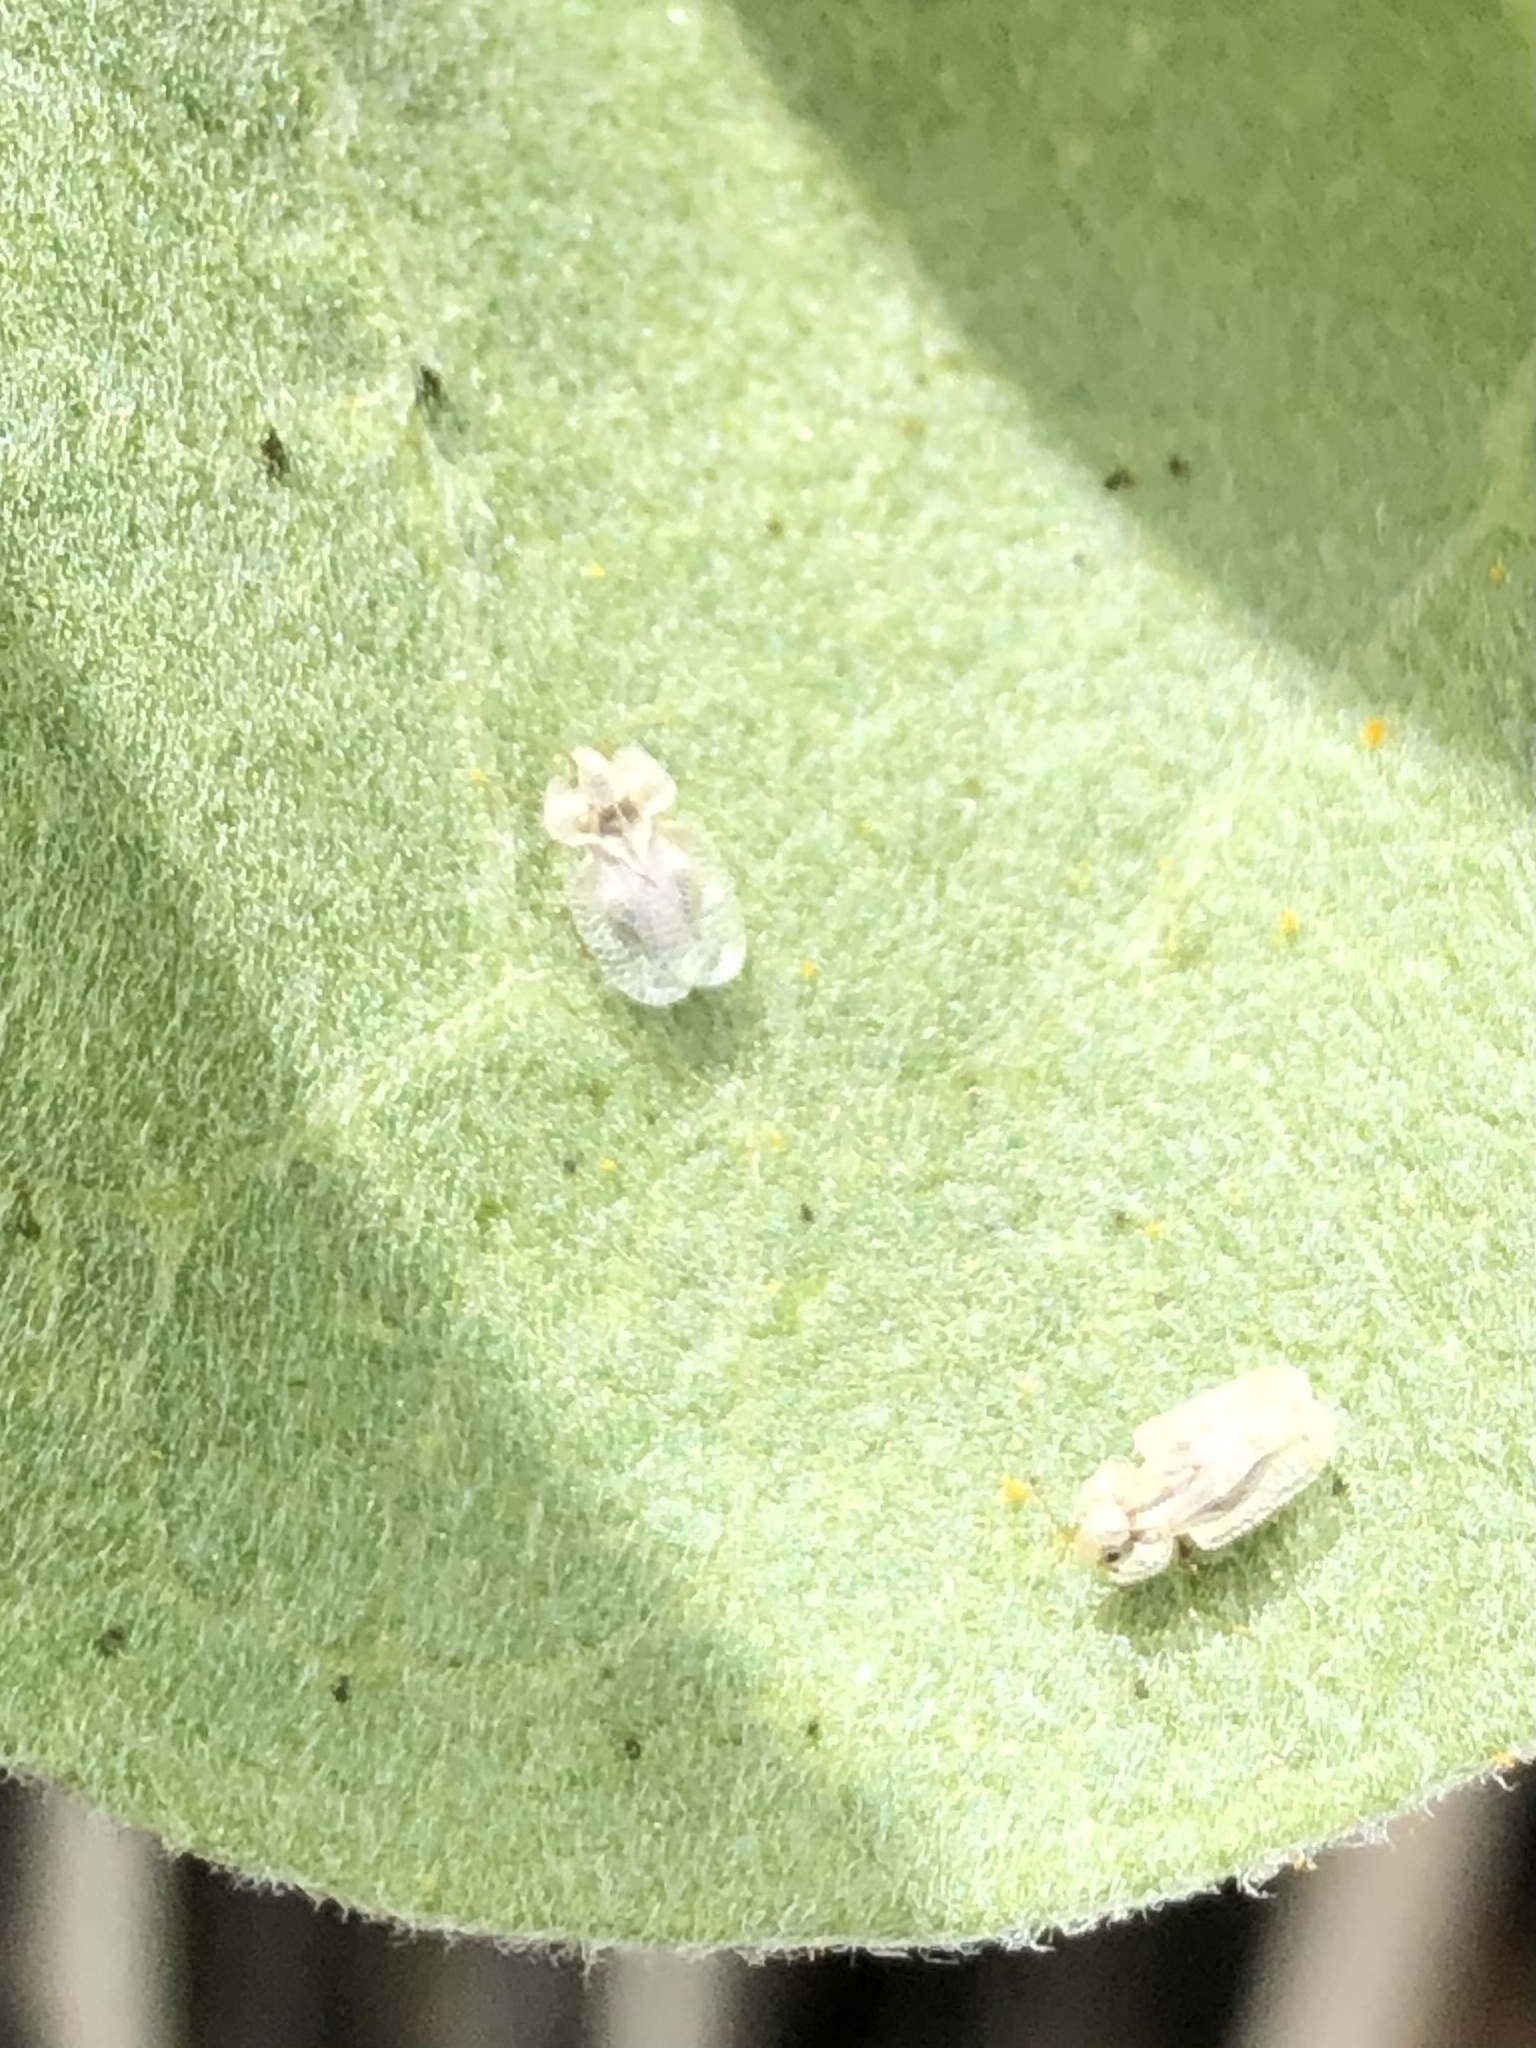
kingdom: Animalia
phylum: Arthropoda
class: Insecta
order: Hemiptera
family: Tingidae
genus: Corythucha
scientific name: Corythucha immaculata
